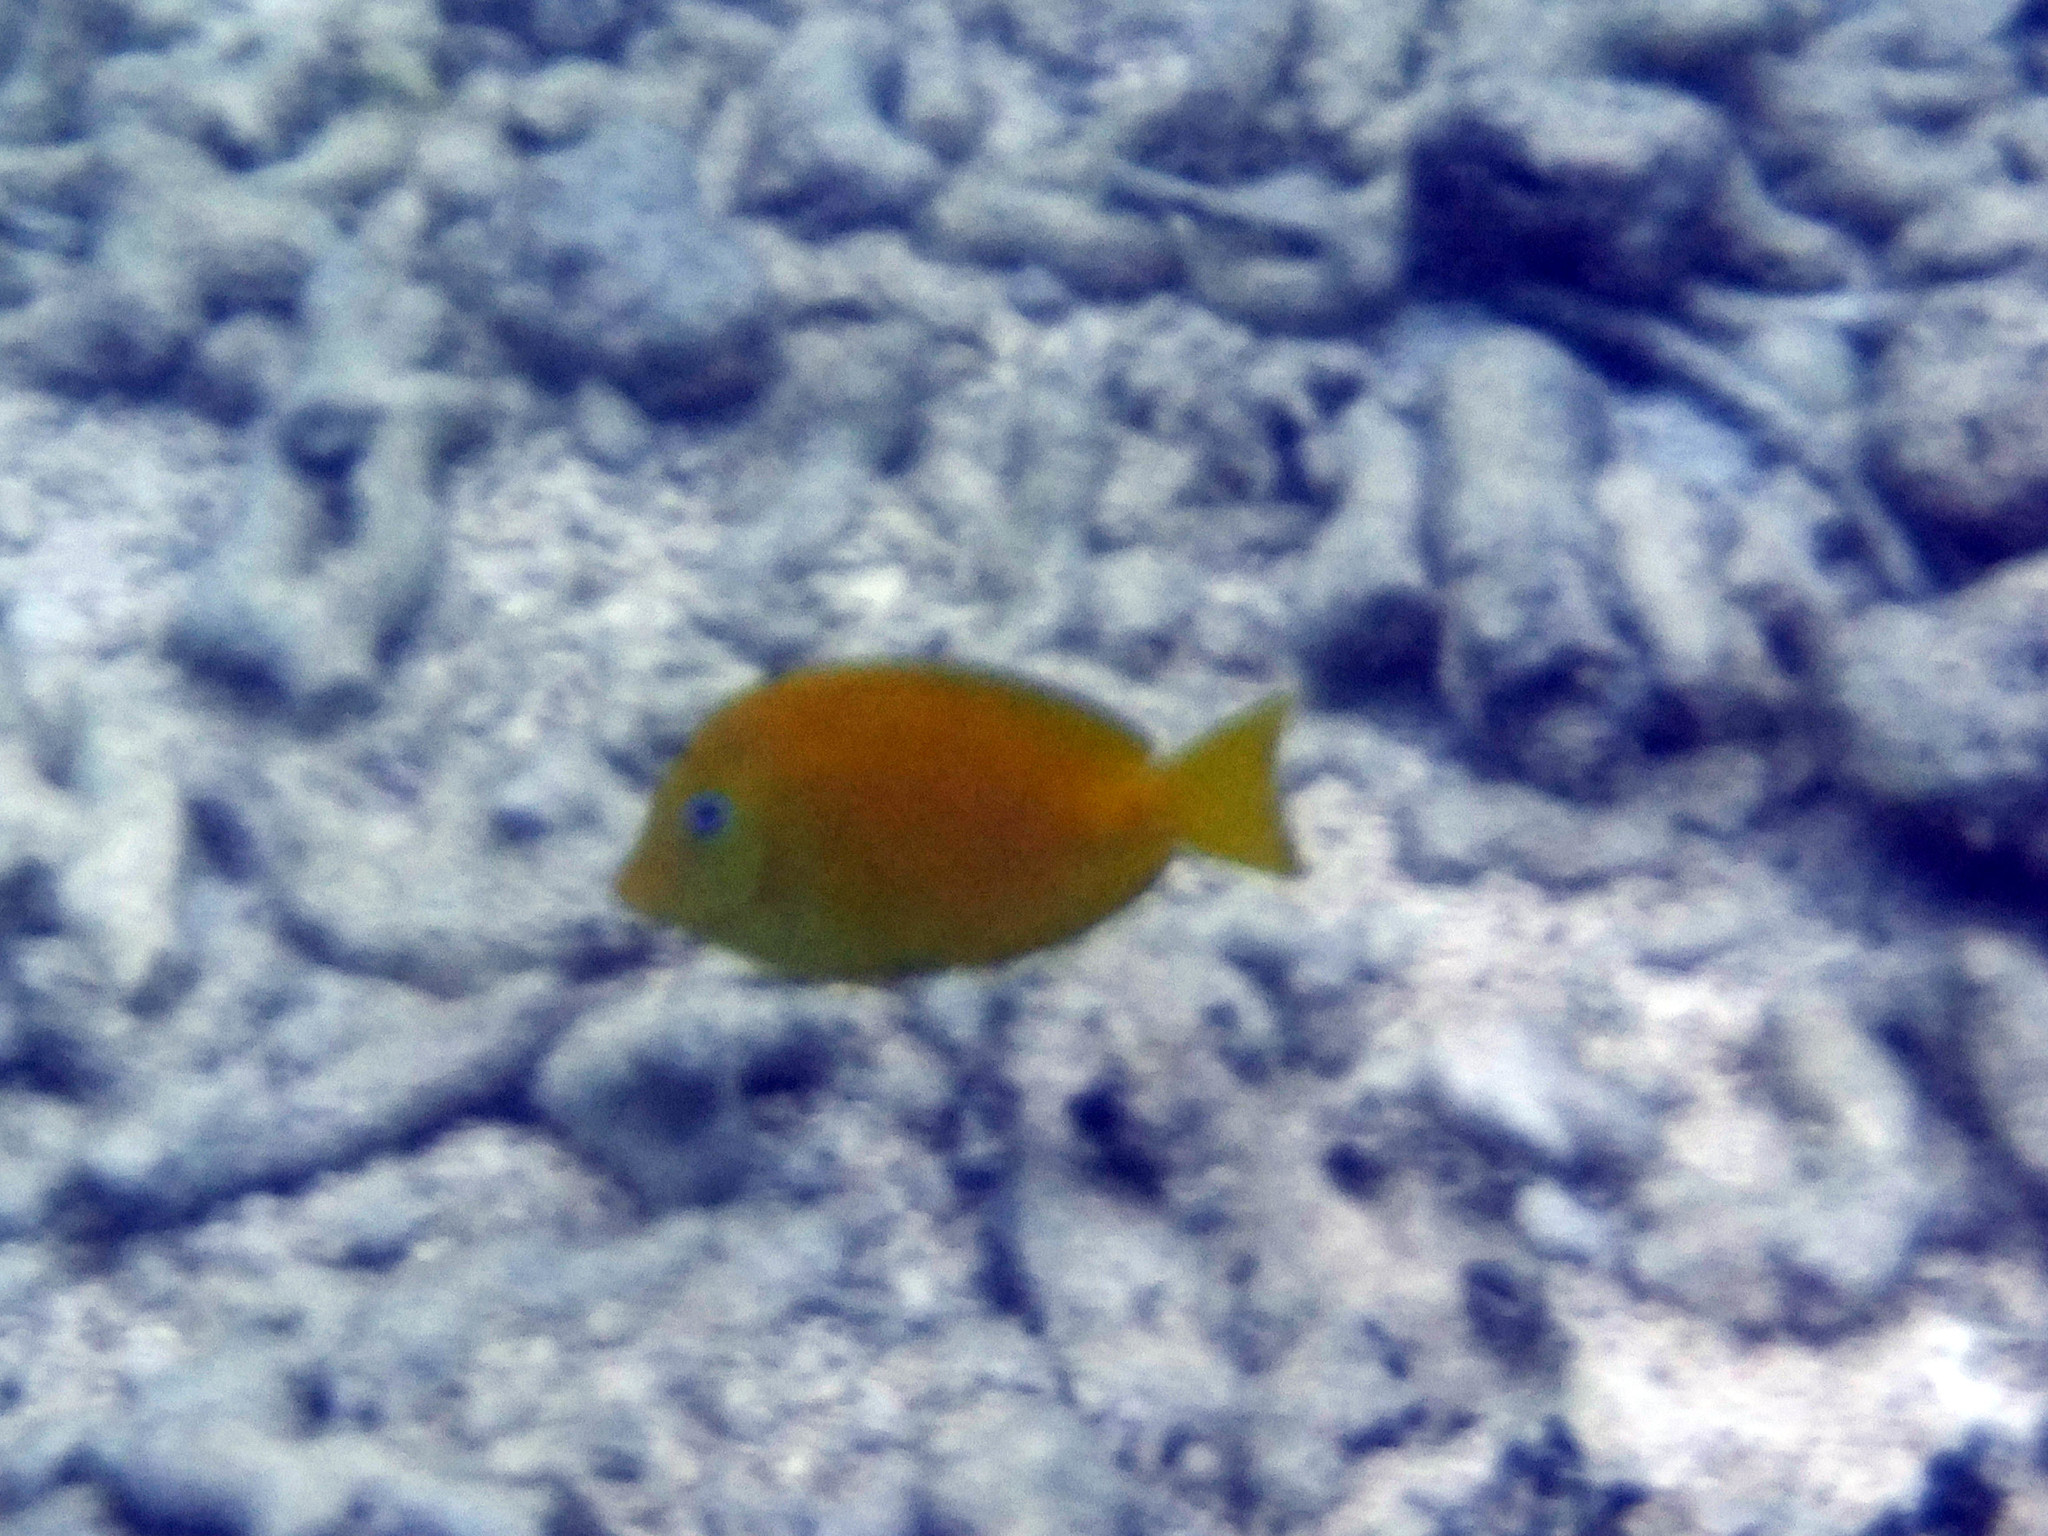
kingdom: Animalia
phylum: Chordata
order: Perciformes
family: Acanthuridae
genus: Acanthurus
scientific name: Acanthurus coeruleus
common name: Blue tang
